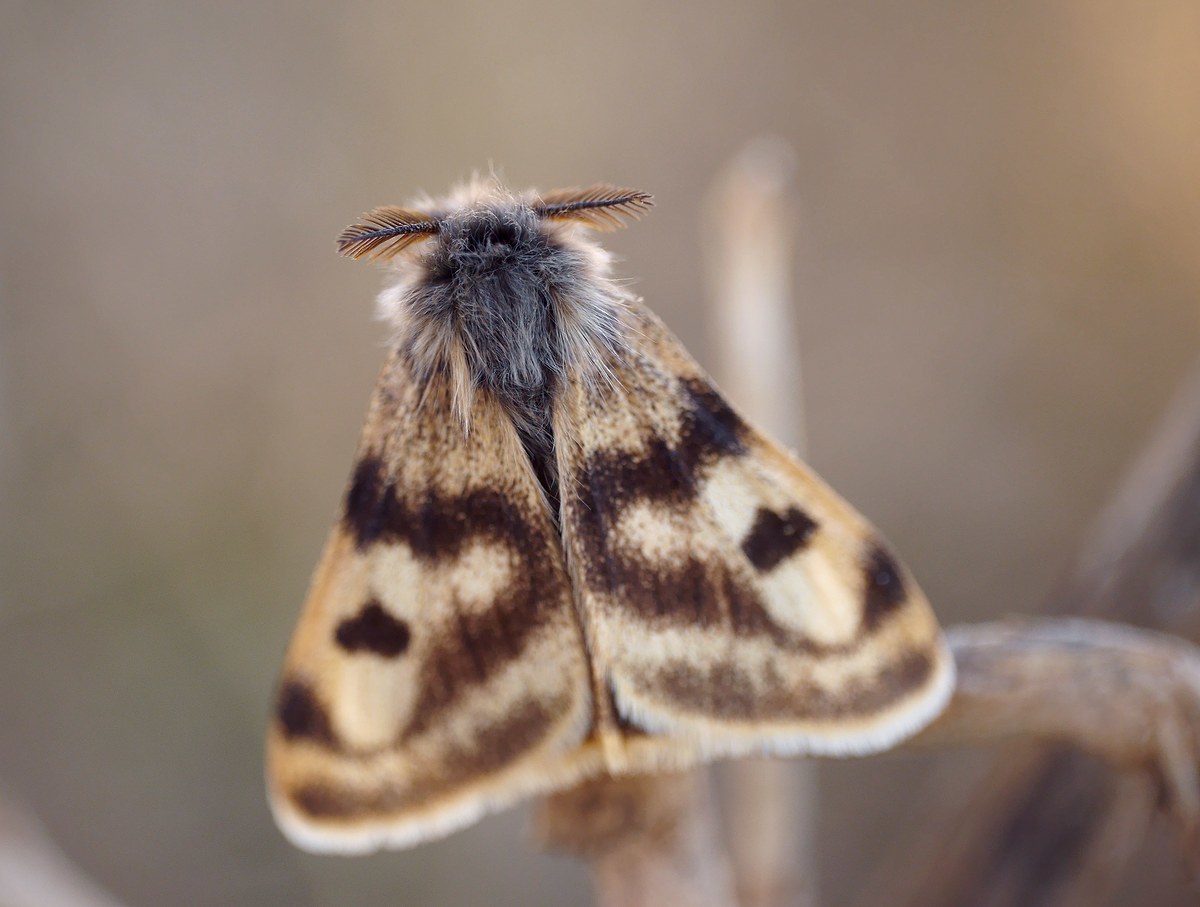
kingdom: Animalia
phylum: Arthropoda
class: Insecta
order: Lepidoptera
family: Erebidae
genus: Orgyia
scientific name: Orgyia dubia
